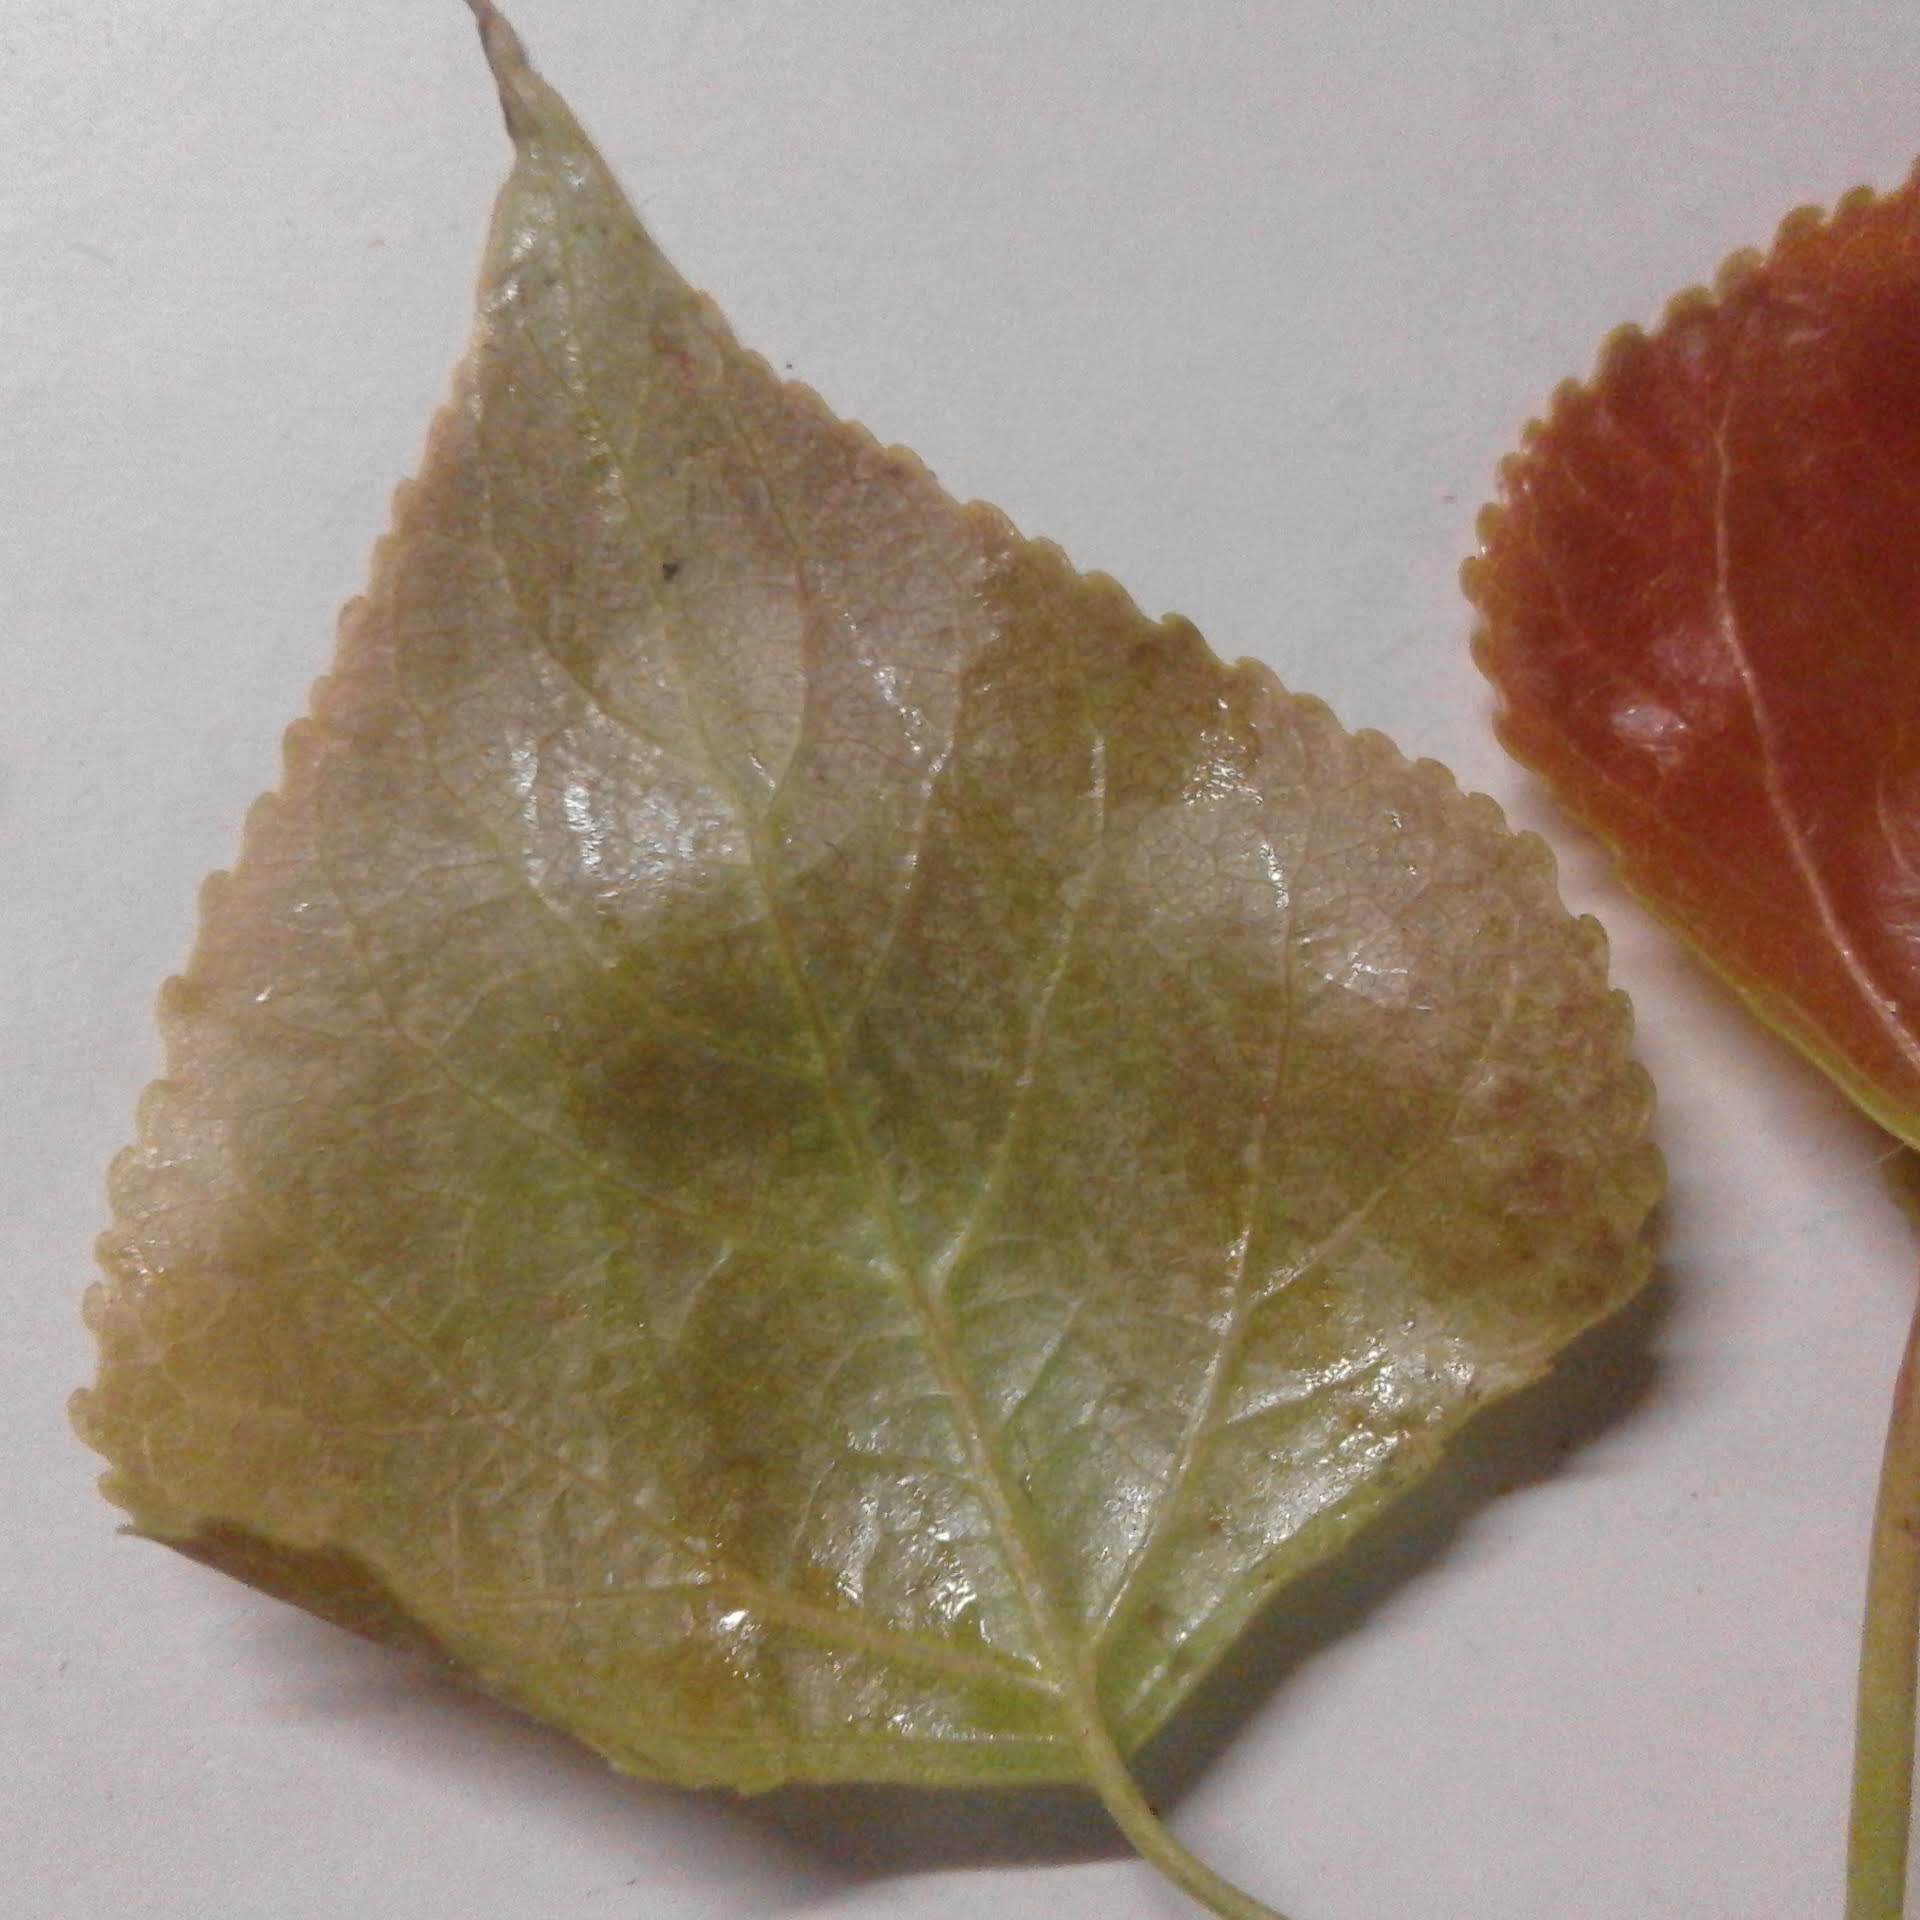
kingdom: Plantae
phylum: Tracheophyta
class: Magnoliopsida
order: Malpighiales
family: Salicaceae
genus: Populus
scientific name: Populus canadensis
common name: Carolina poplar
